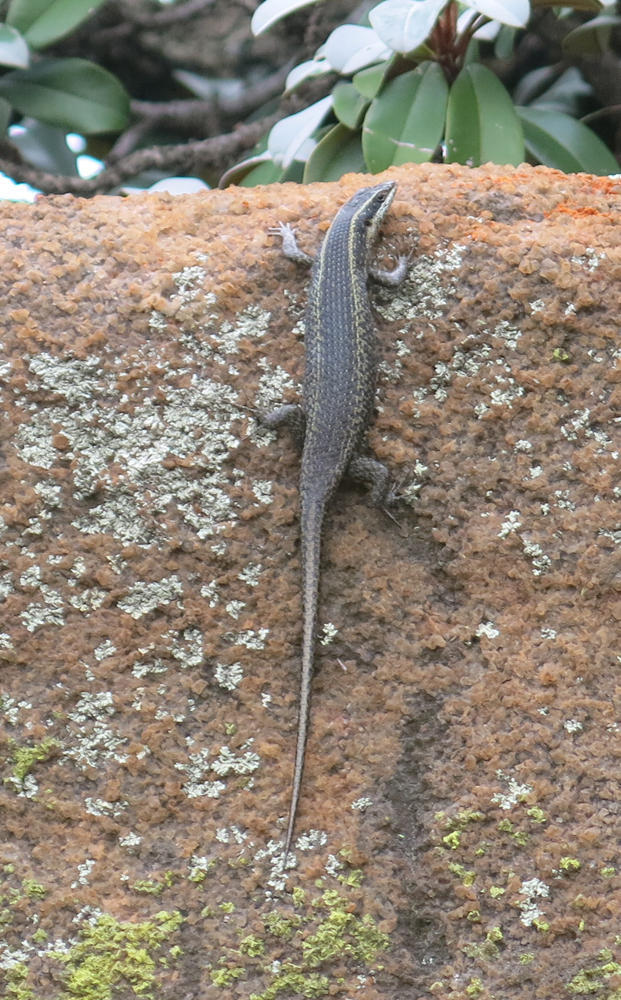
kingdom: Animalia
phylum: Chordata
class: Squamata
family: Scincidae
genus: Trachylepis
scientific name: Trachylepis punctatissima
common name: Montane speckled skink
